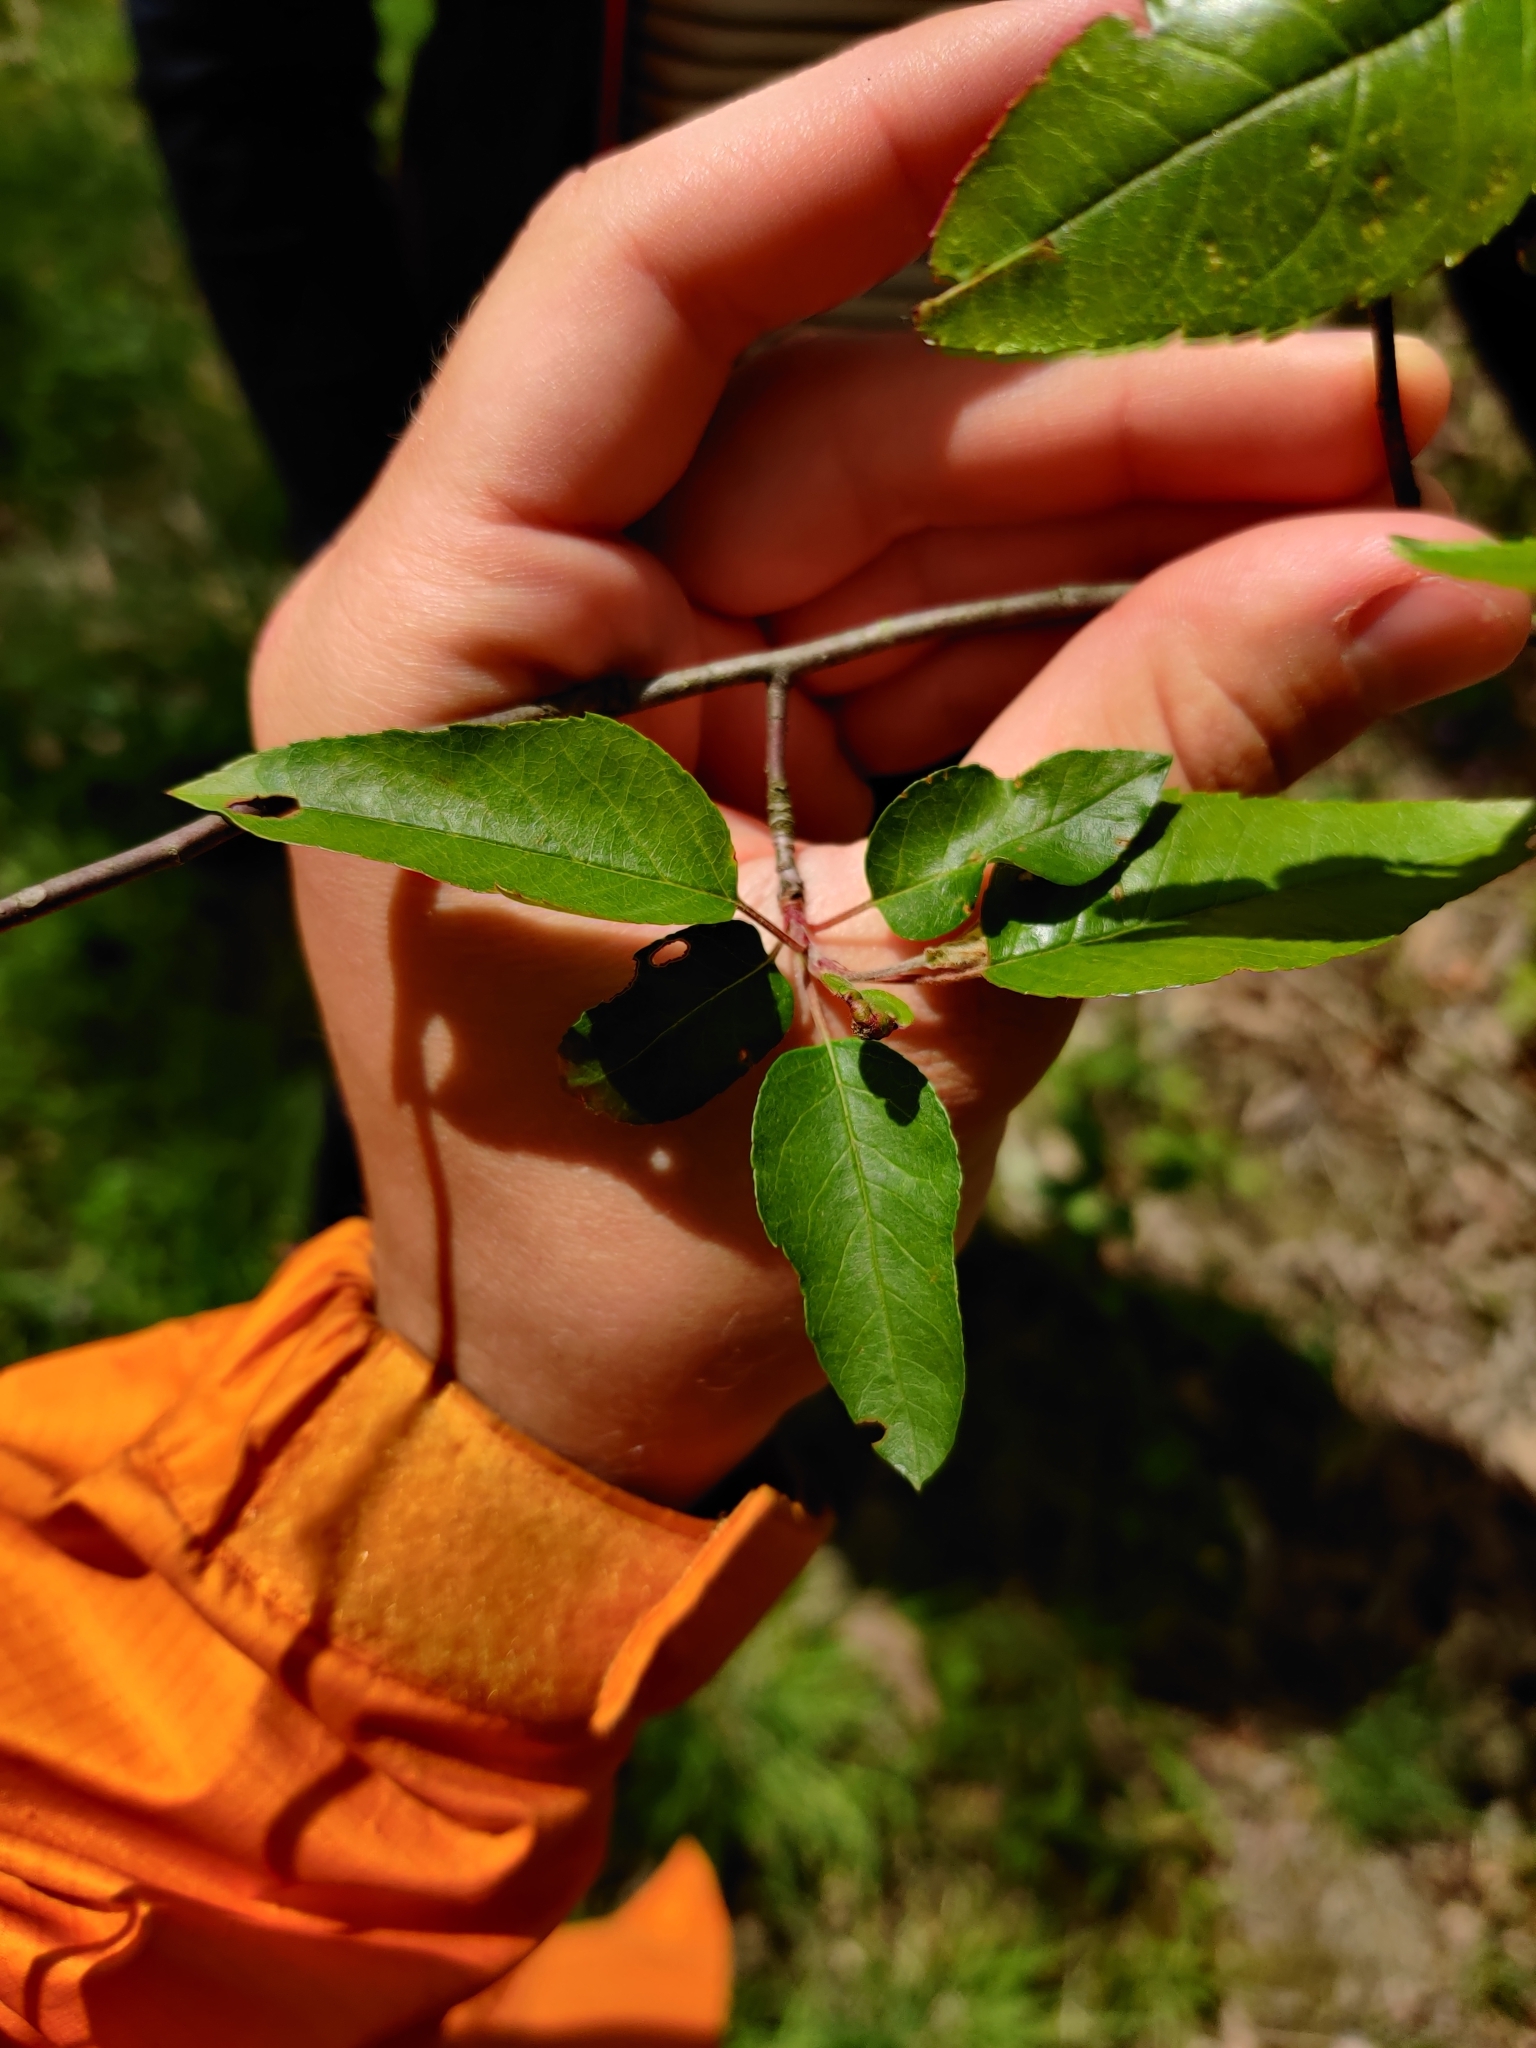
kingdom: Plantae
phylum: Tracheophyta
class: Magnoliopsida
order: Rosales
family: Rosaceae
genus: Malus
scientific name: Malus coronaria
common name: Sweet crab apple
